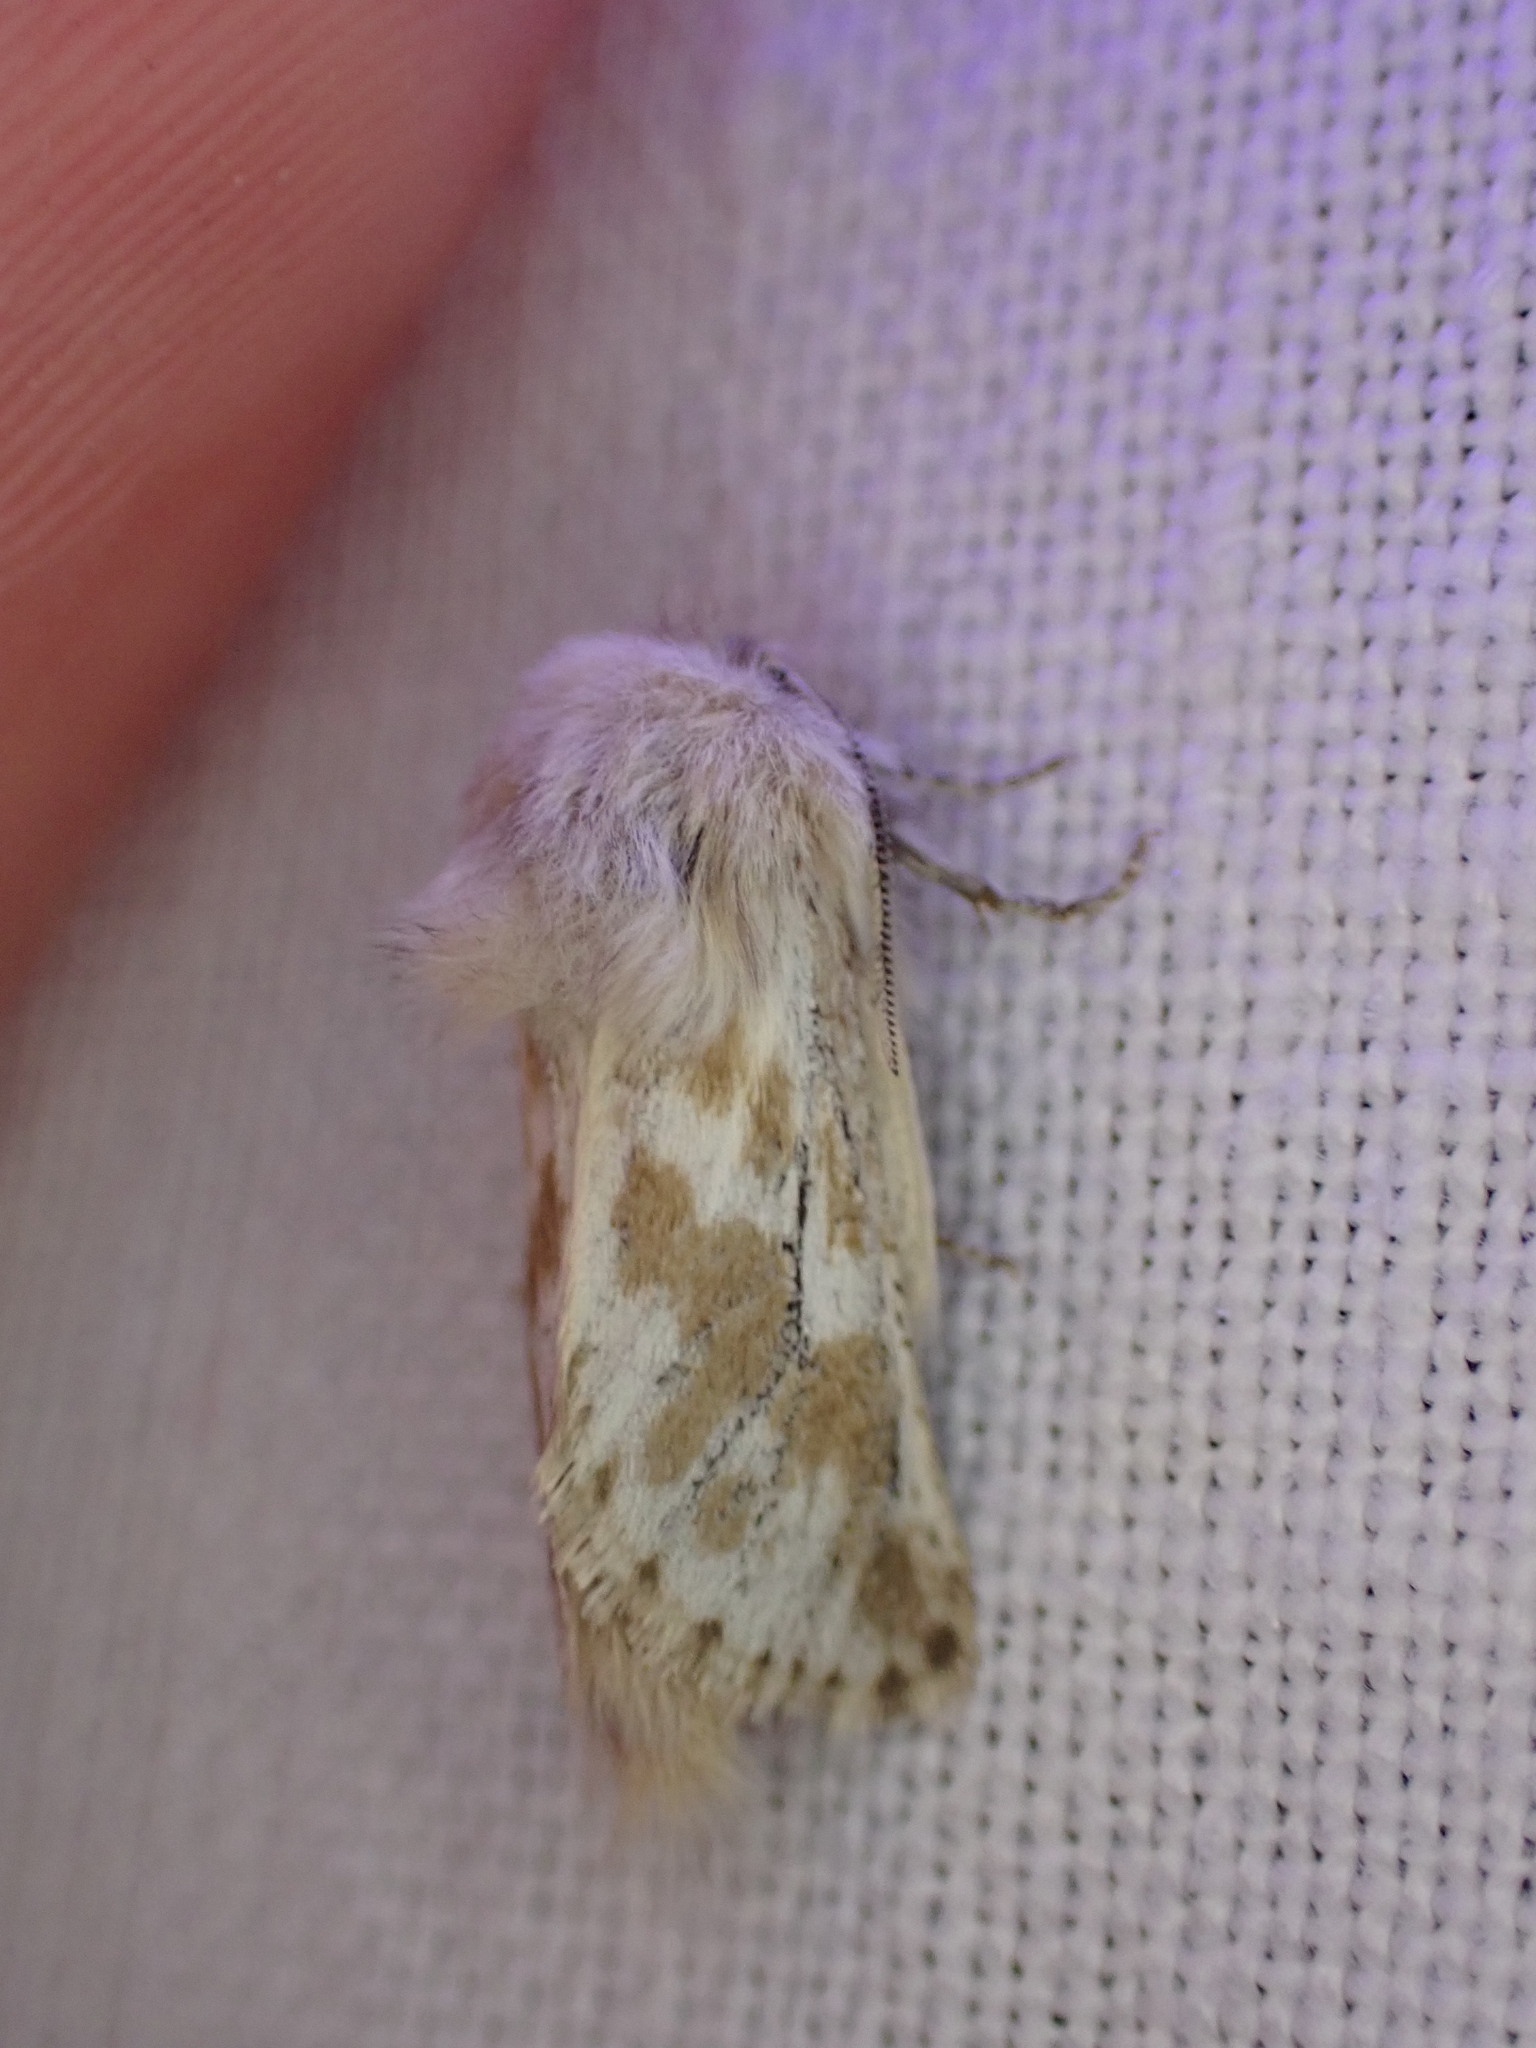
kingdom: Animalia
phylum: Arthropoda
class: Insecta
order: Lepidoptera
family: Cossidae
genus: Dyspessa
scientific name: Dyspessa ulula
